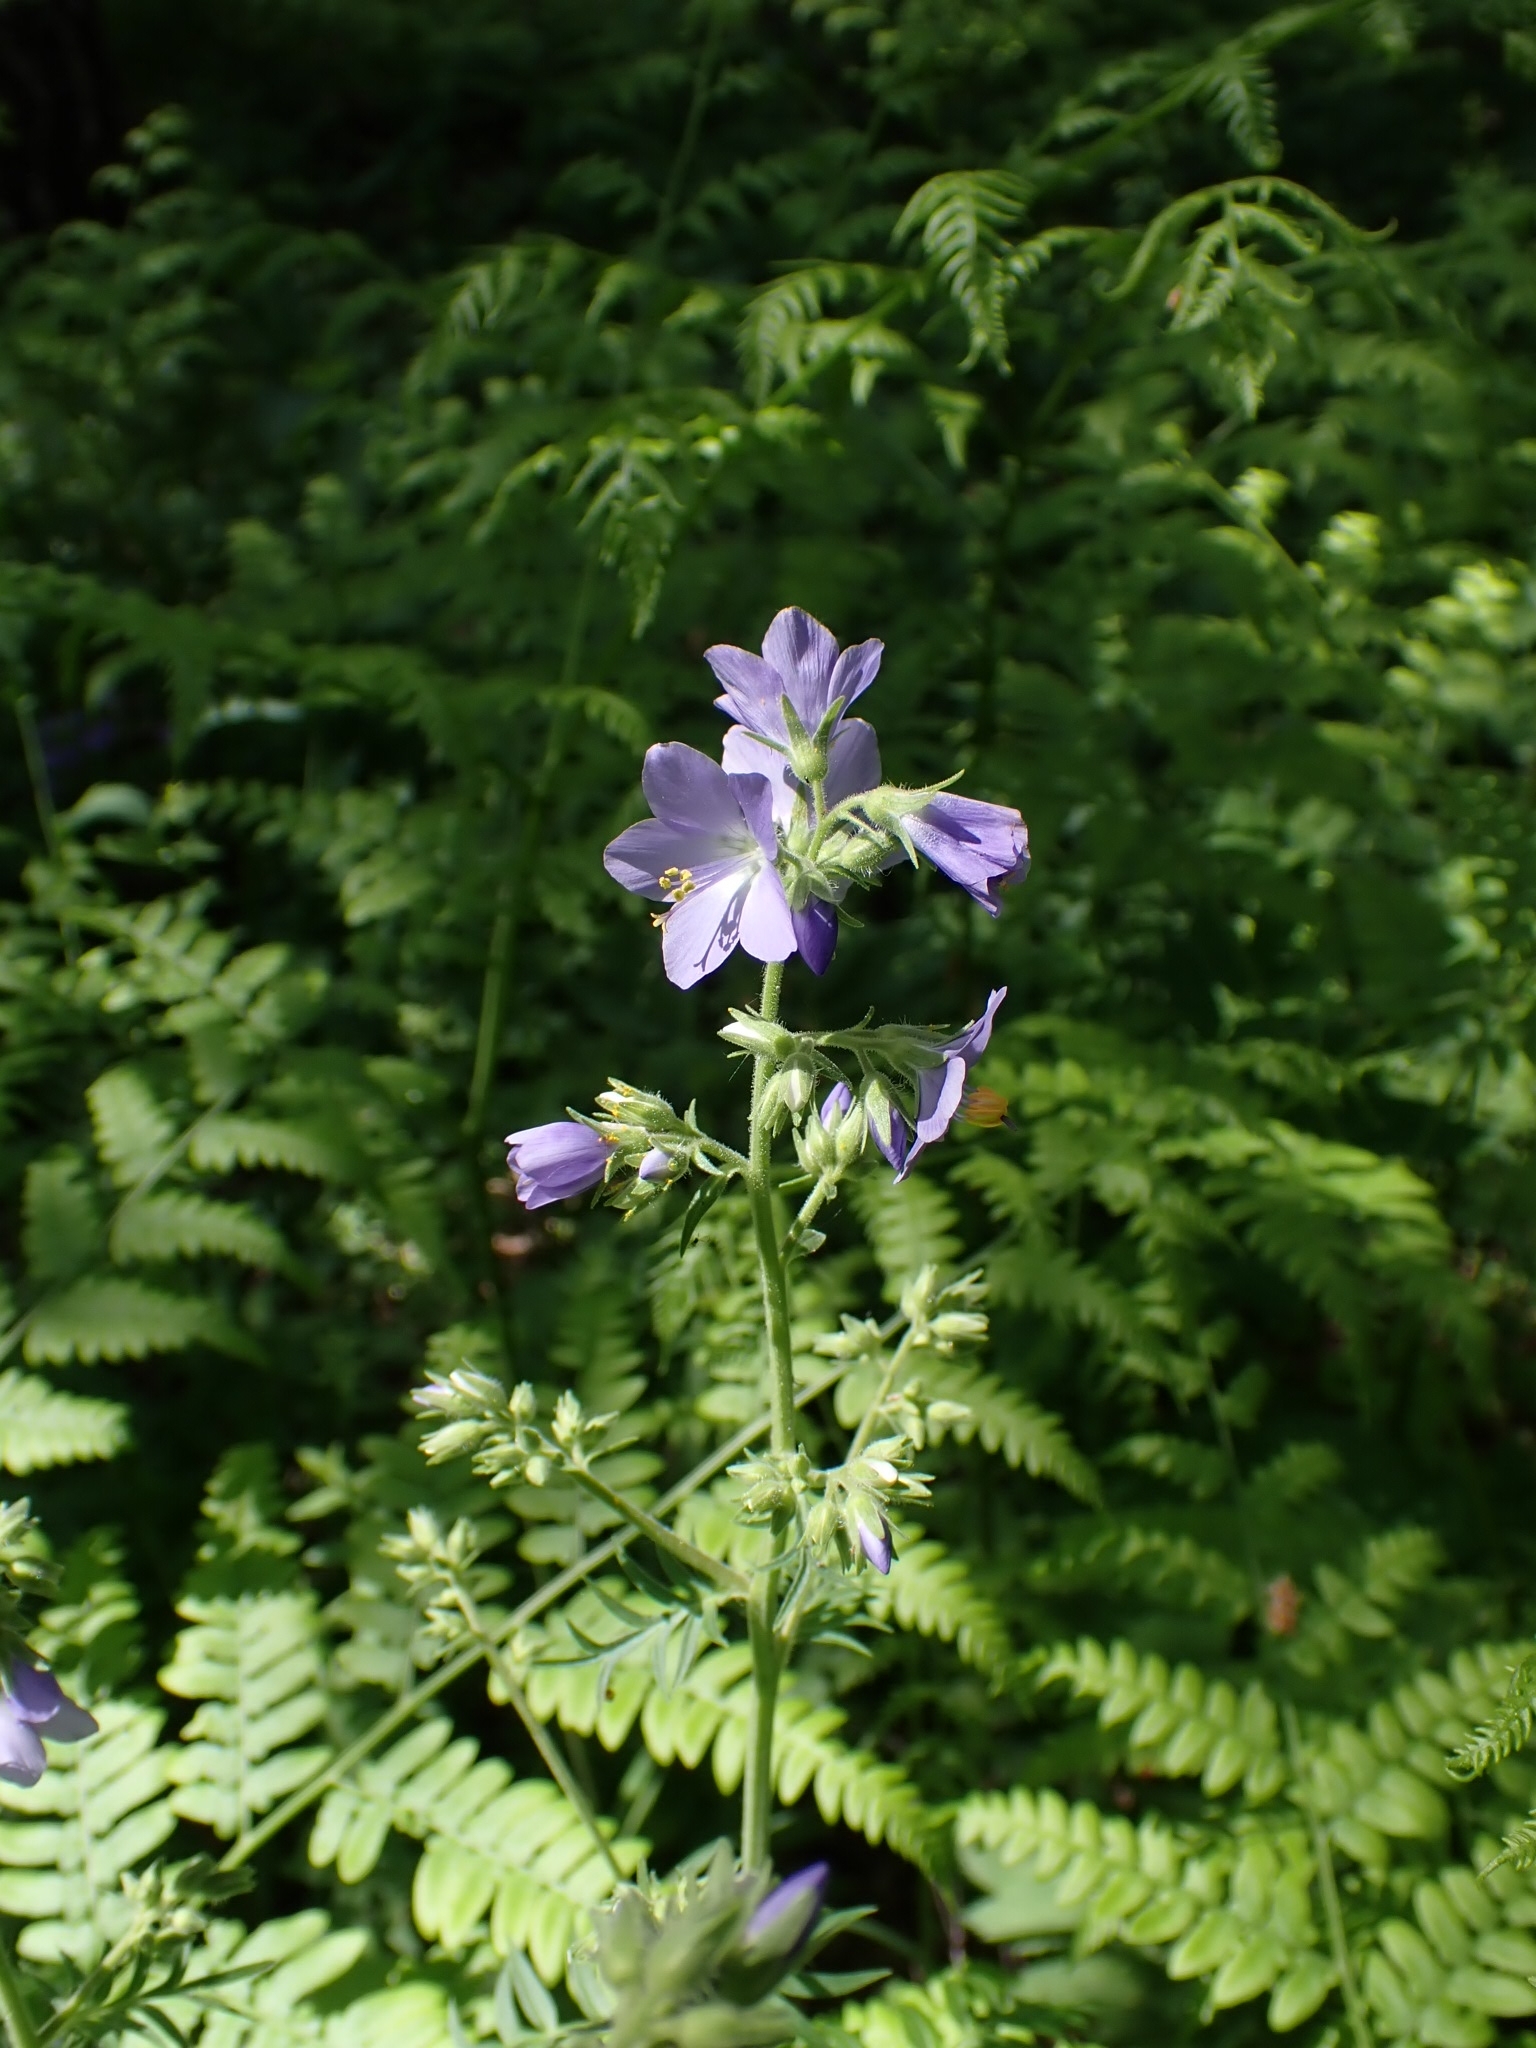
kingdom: Plantae
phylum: Tracheophyta
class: Magnoliopsida
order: Ericales
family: Polemoniaceae
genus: Polemonium
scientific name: Polemonium caeruleum
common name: Jacob's-ladder
